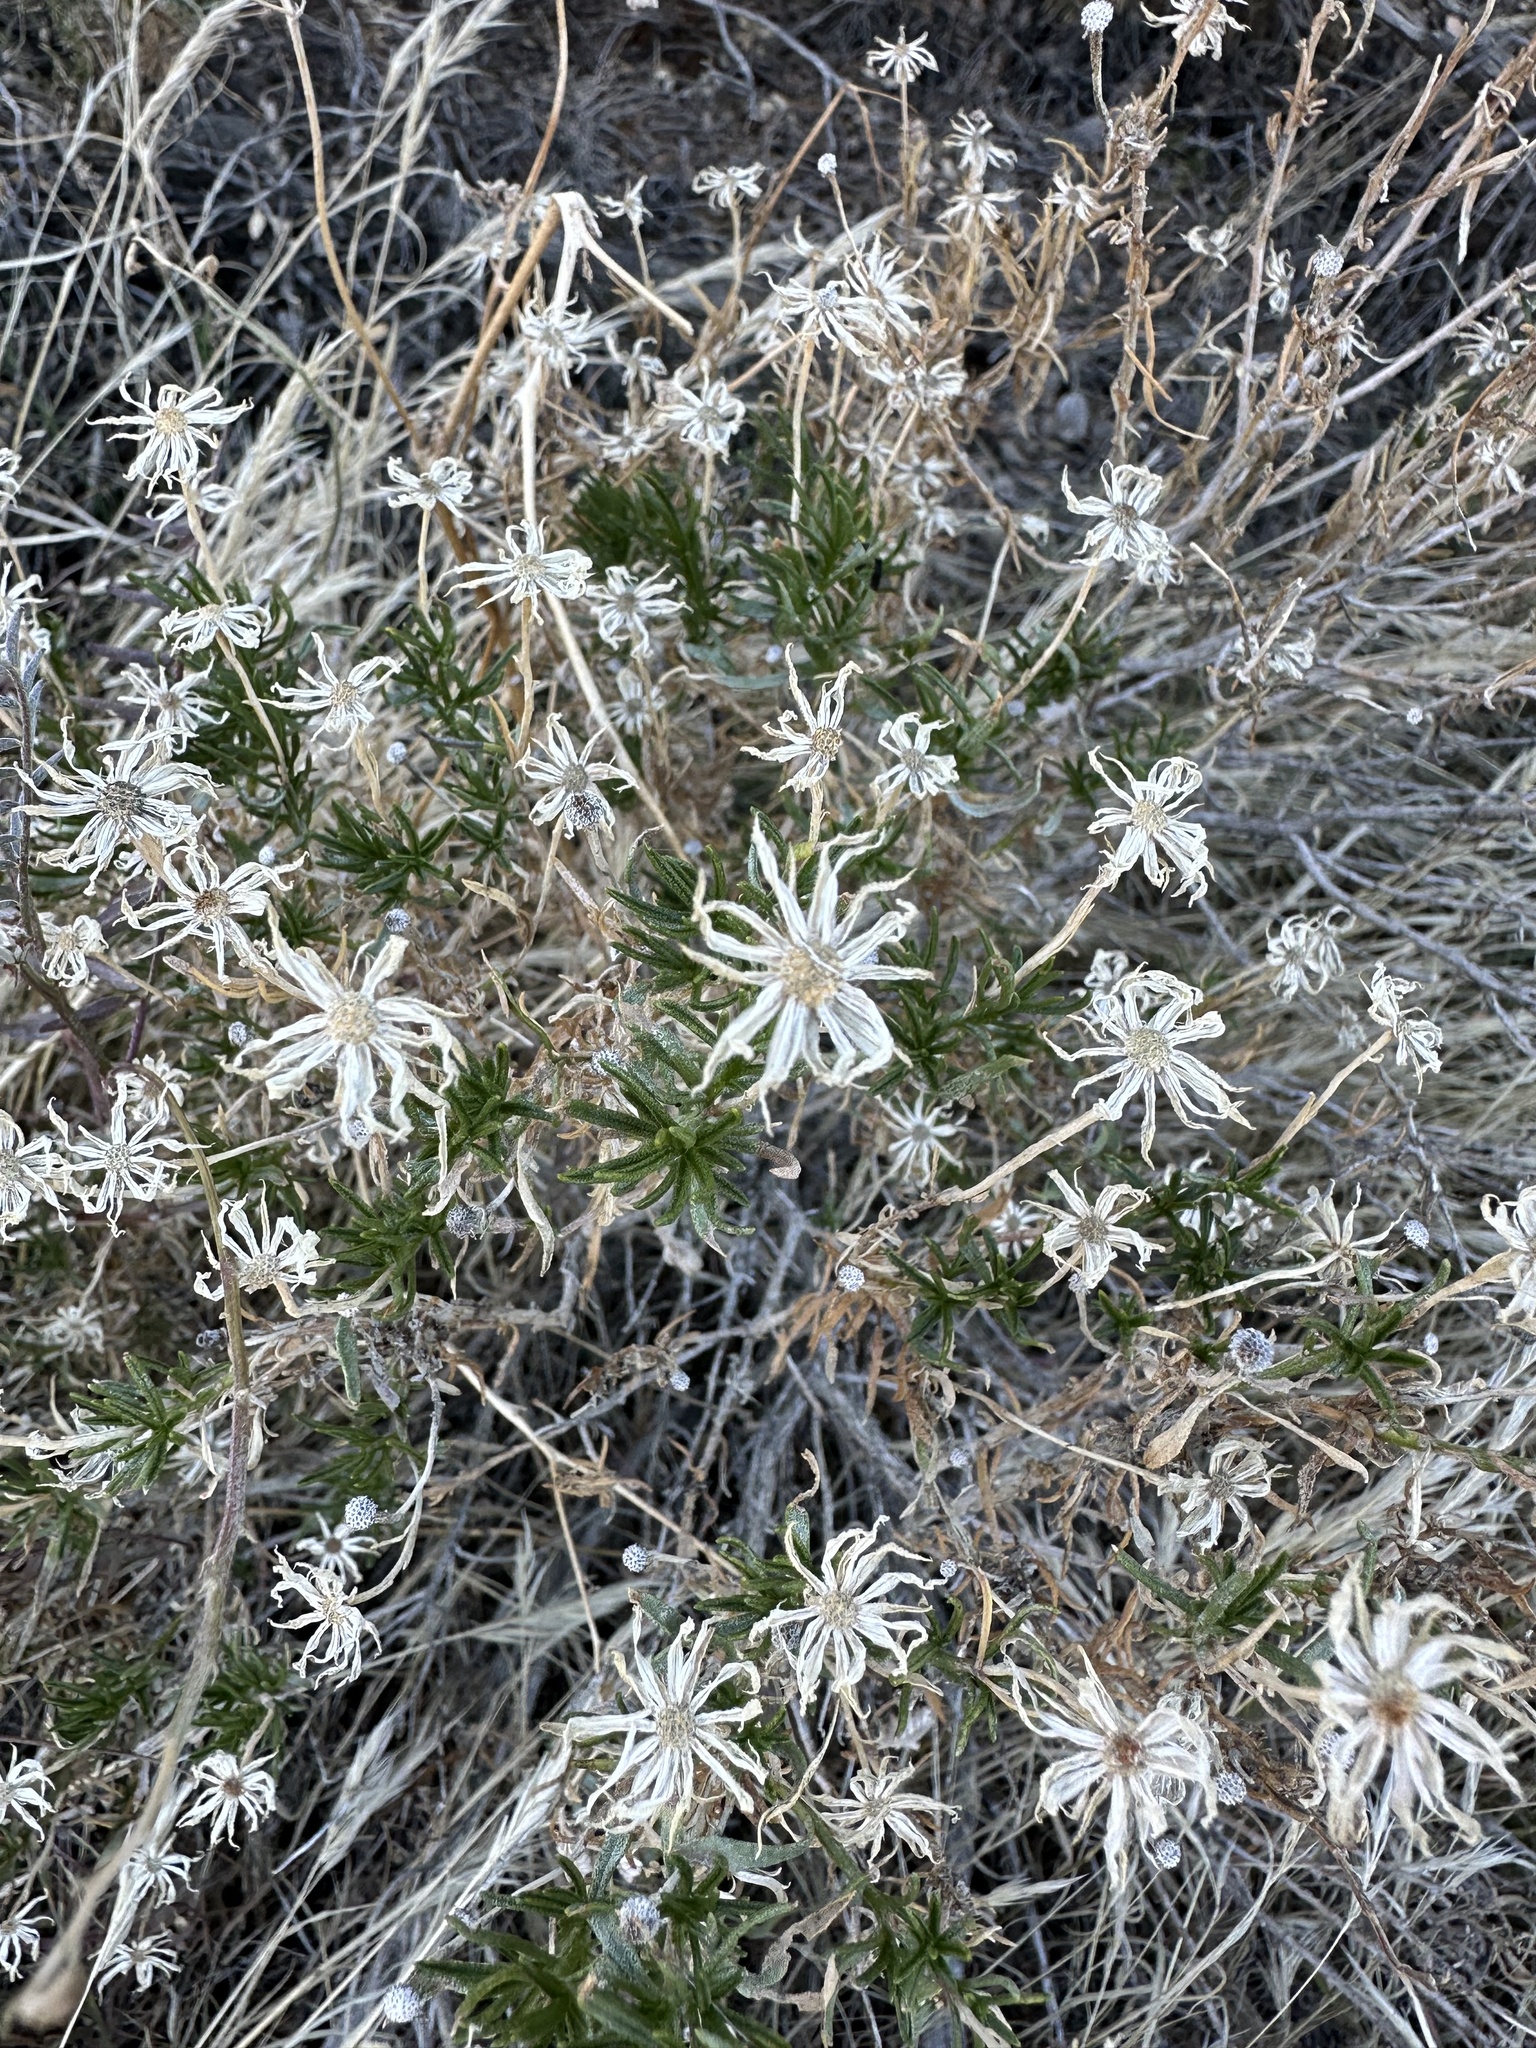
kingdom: Plantae
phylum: Tracheophyta
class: Magnoliopsida
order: Asterales
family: Asteraceae
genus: Ericameria
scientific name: Ericameria linearifolia
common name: Interior goldenbush
